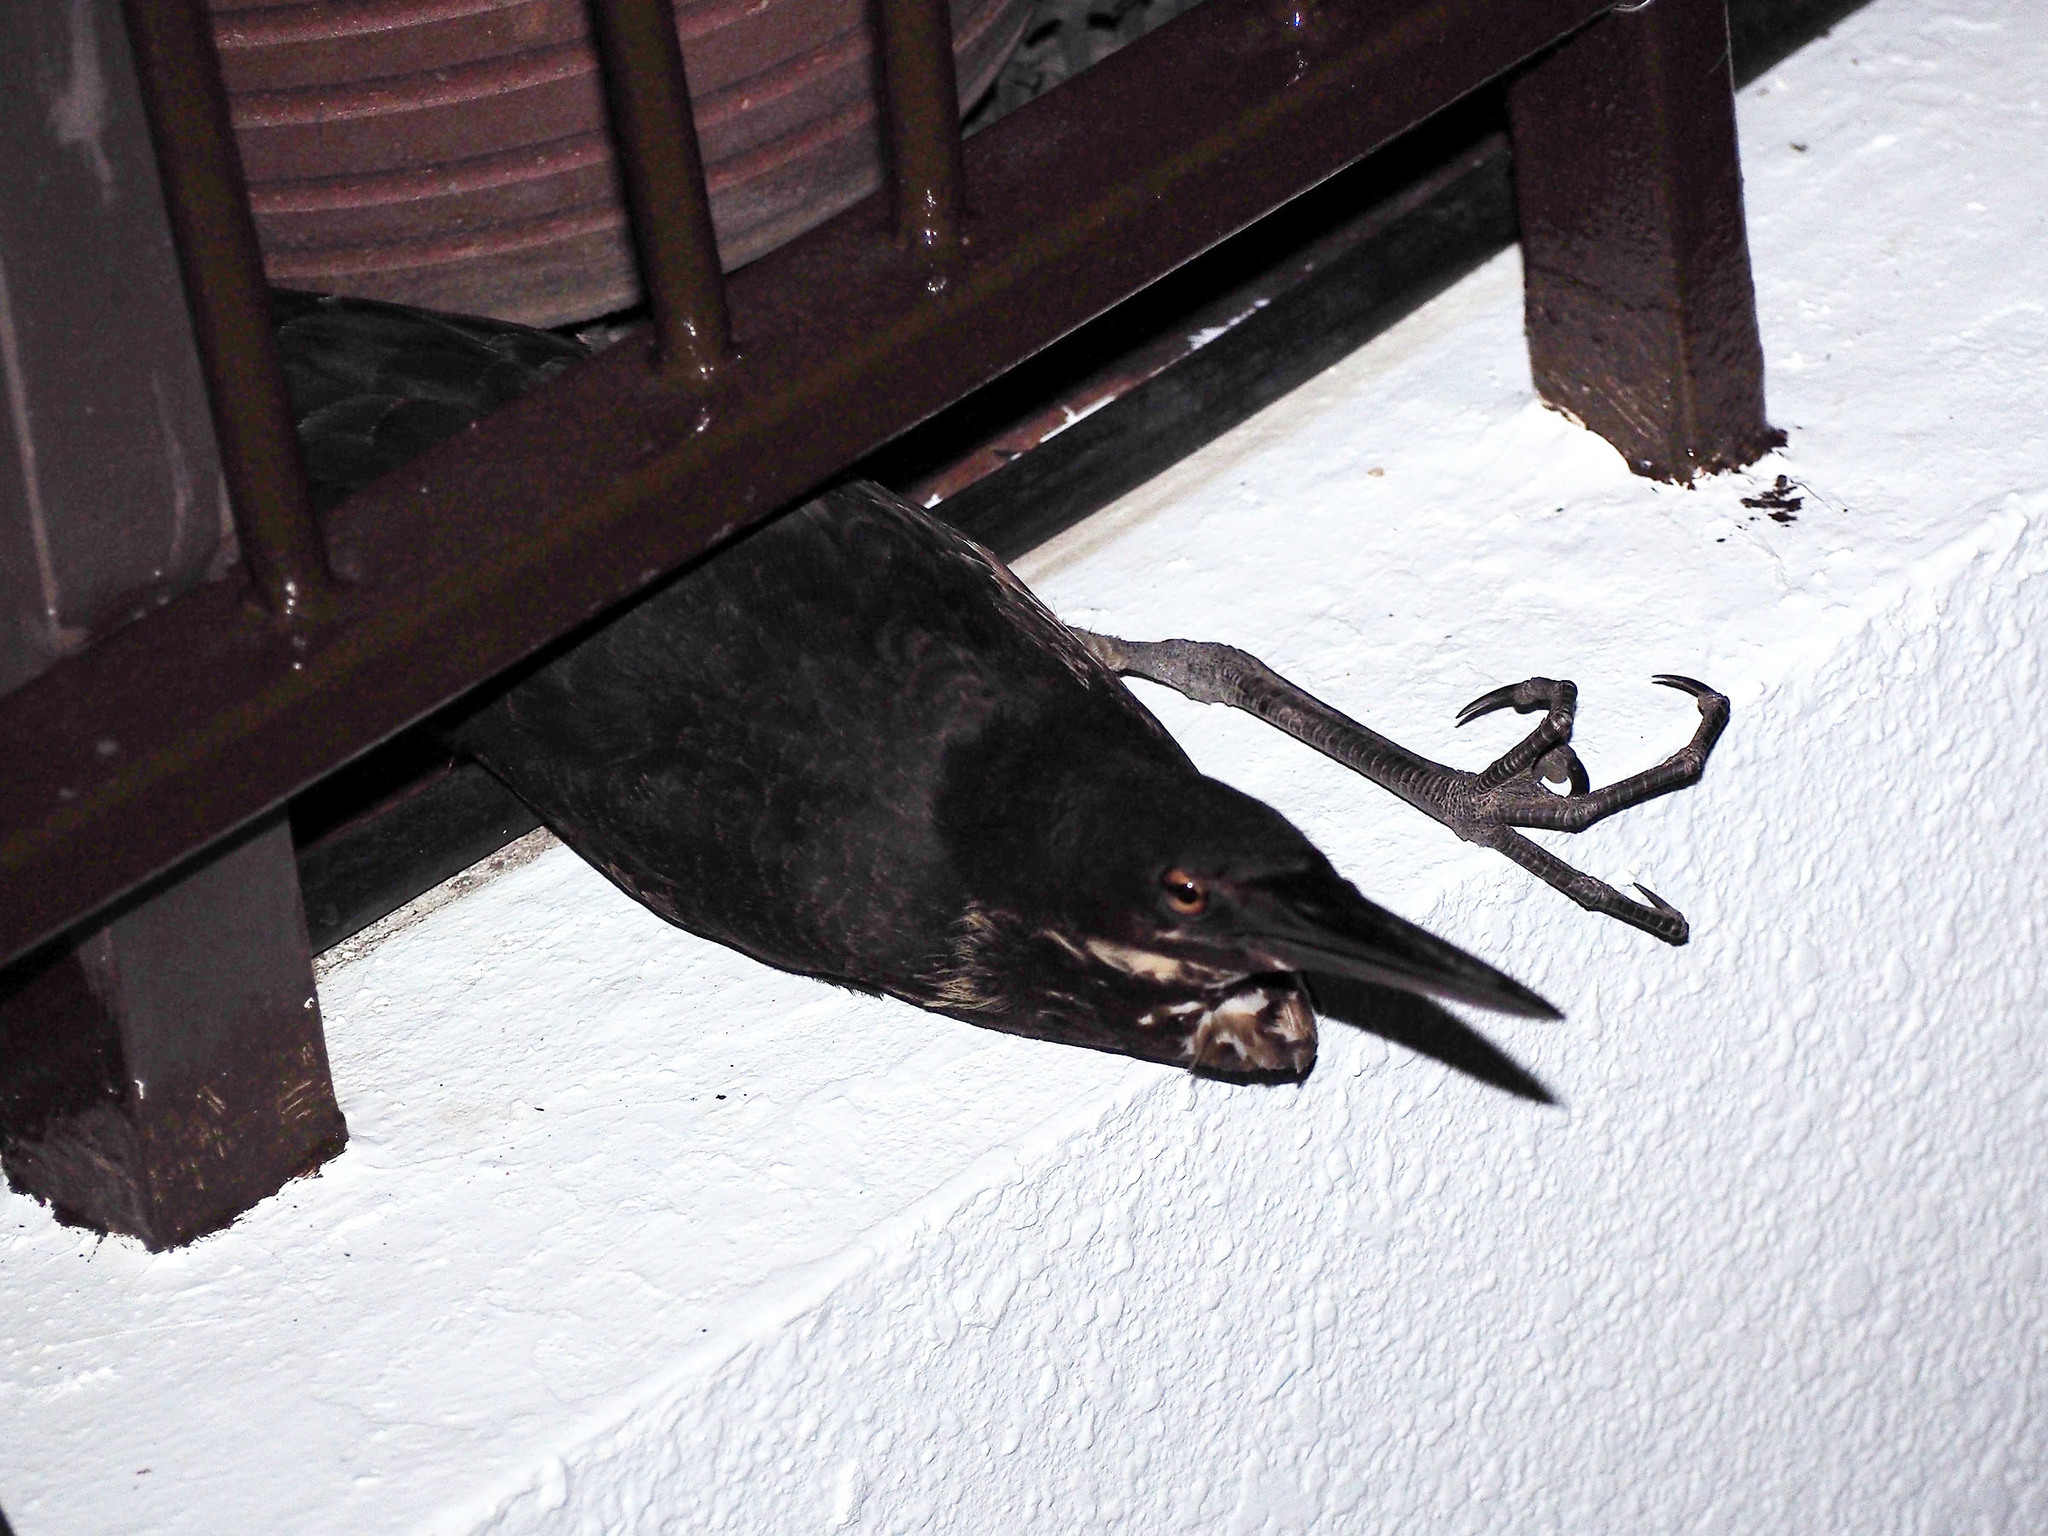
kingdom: Animalia
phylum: Chordata
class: Aves
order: Pelecaniformes
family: Ardeidae
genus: Dupetor
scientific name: Dupetor flavicollis
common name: Black bittern
